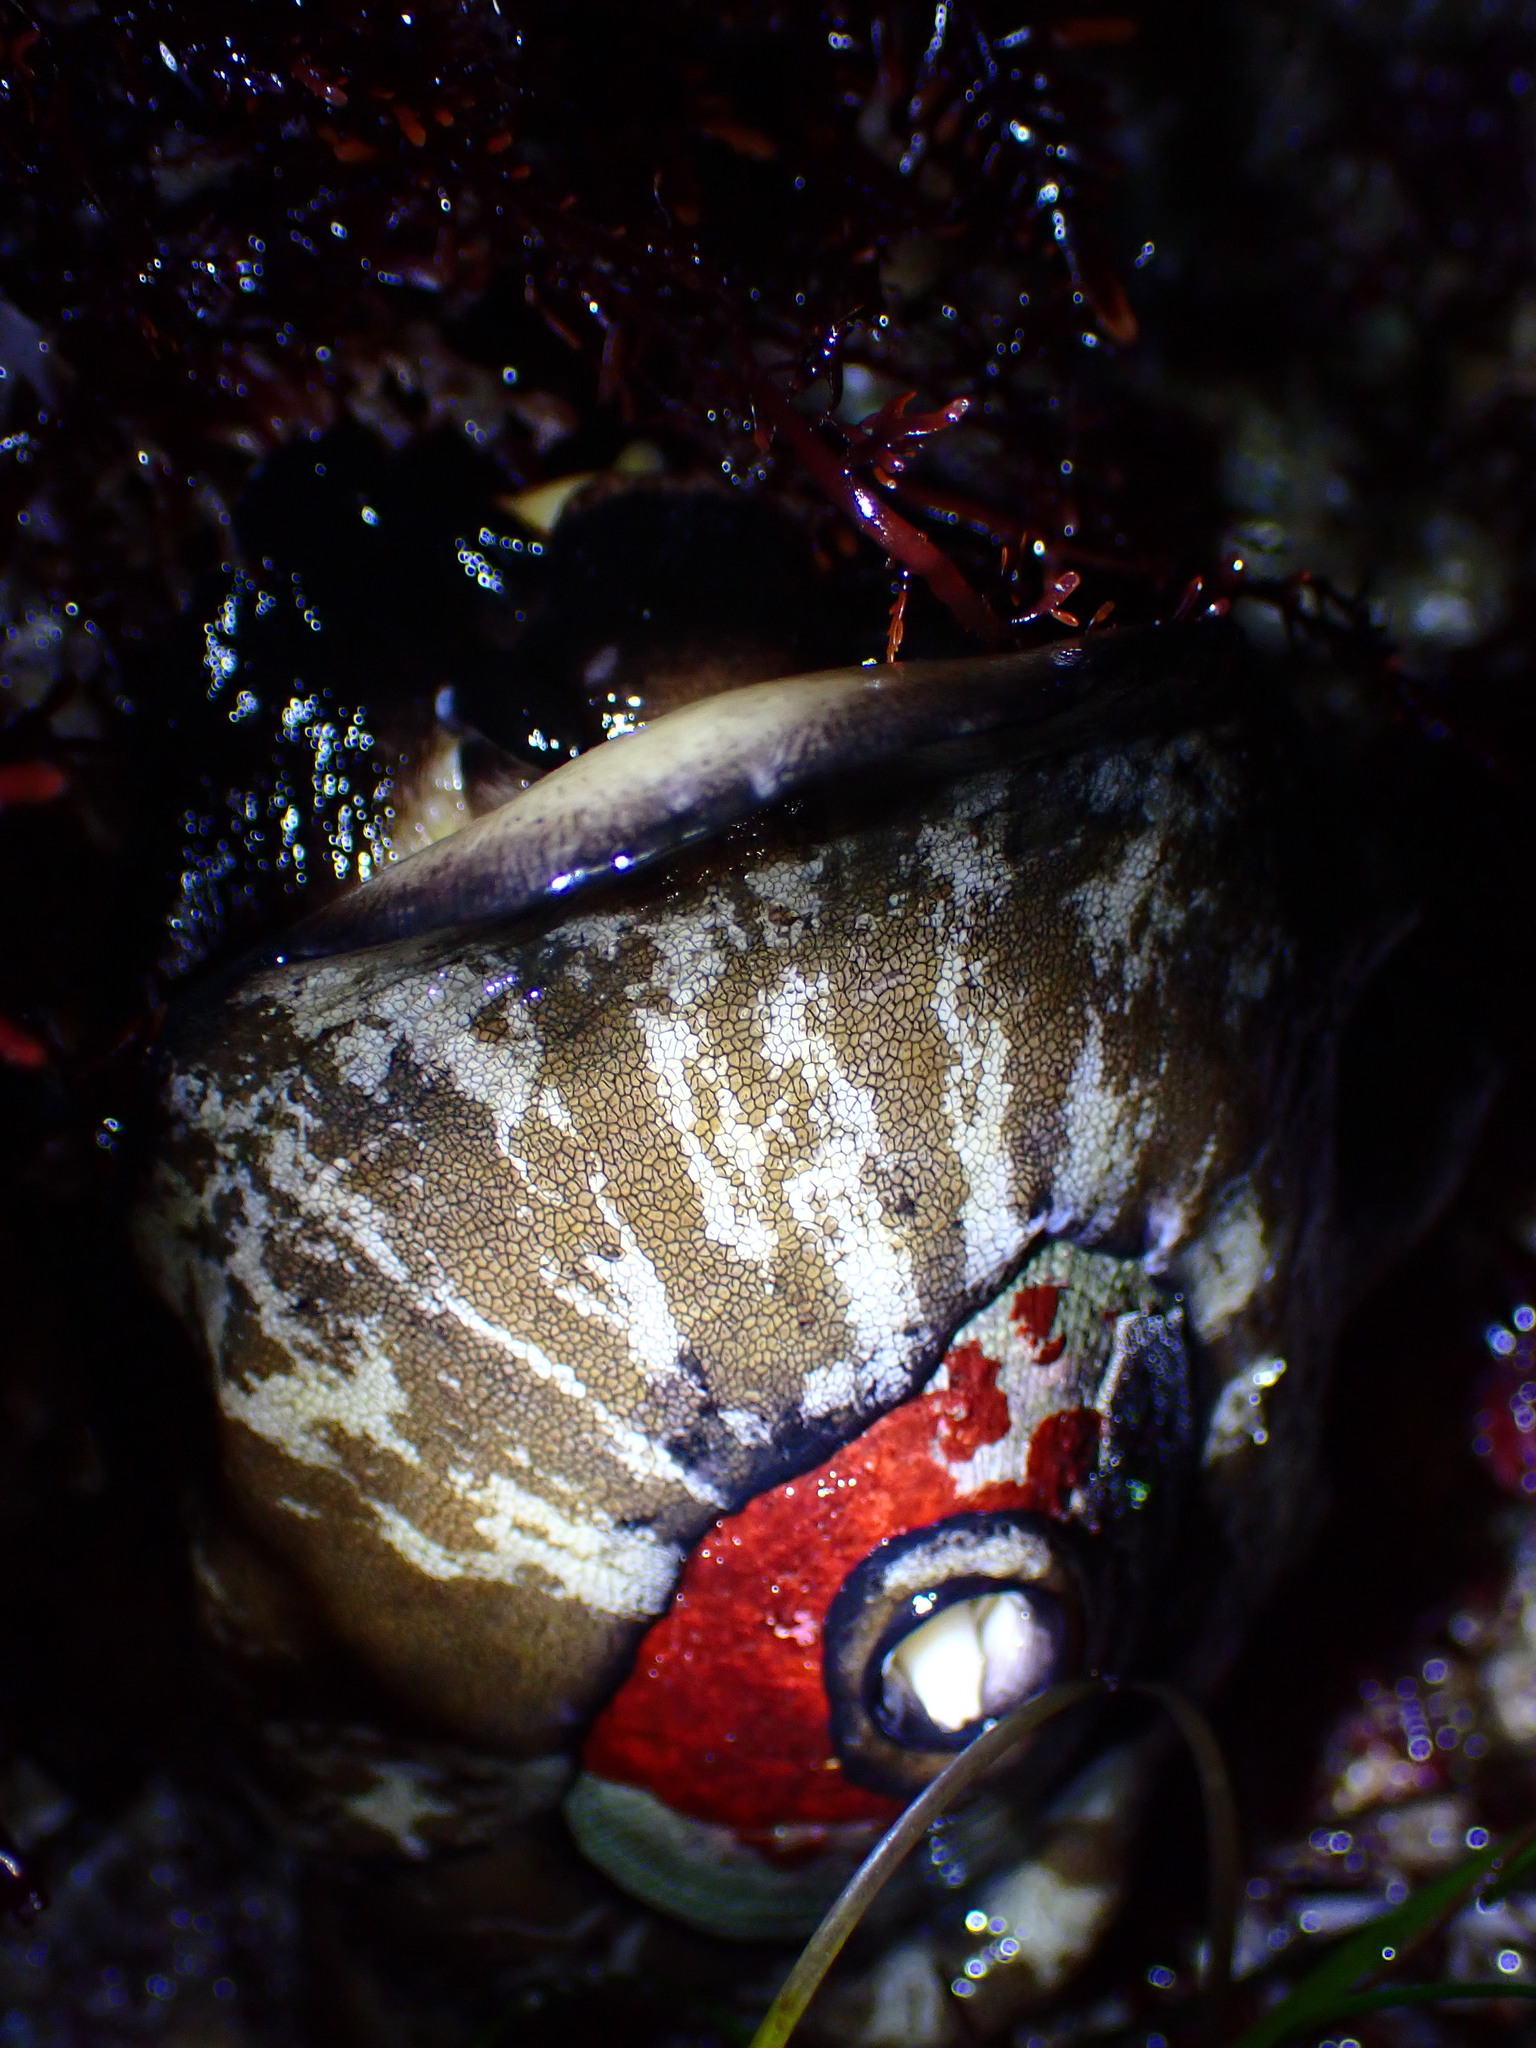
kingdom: Animalia
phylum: Mollusca
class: Gastropoda
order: Lepetellida
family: Fissurellidae
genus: Megathura
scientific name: Megathura crenulata
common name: Giant keyhole limpet
